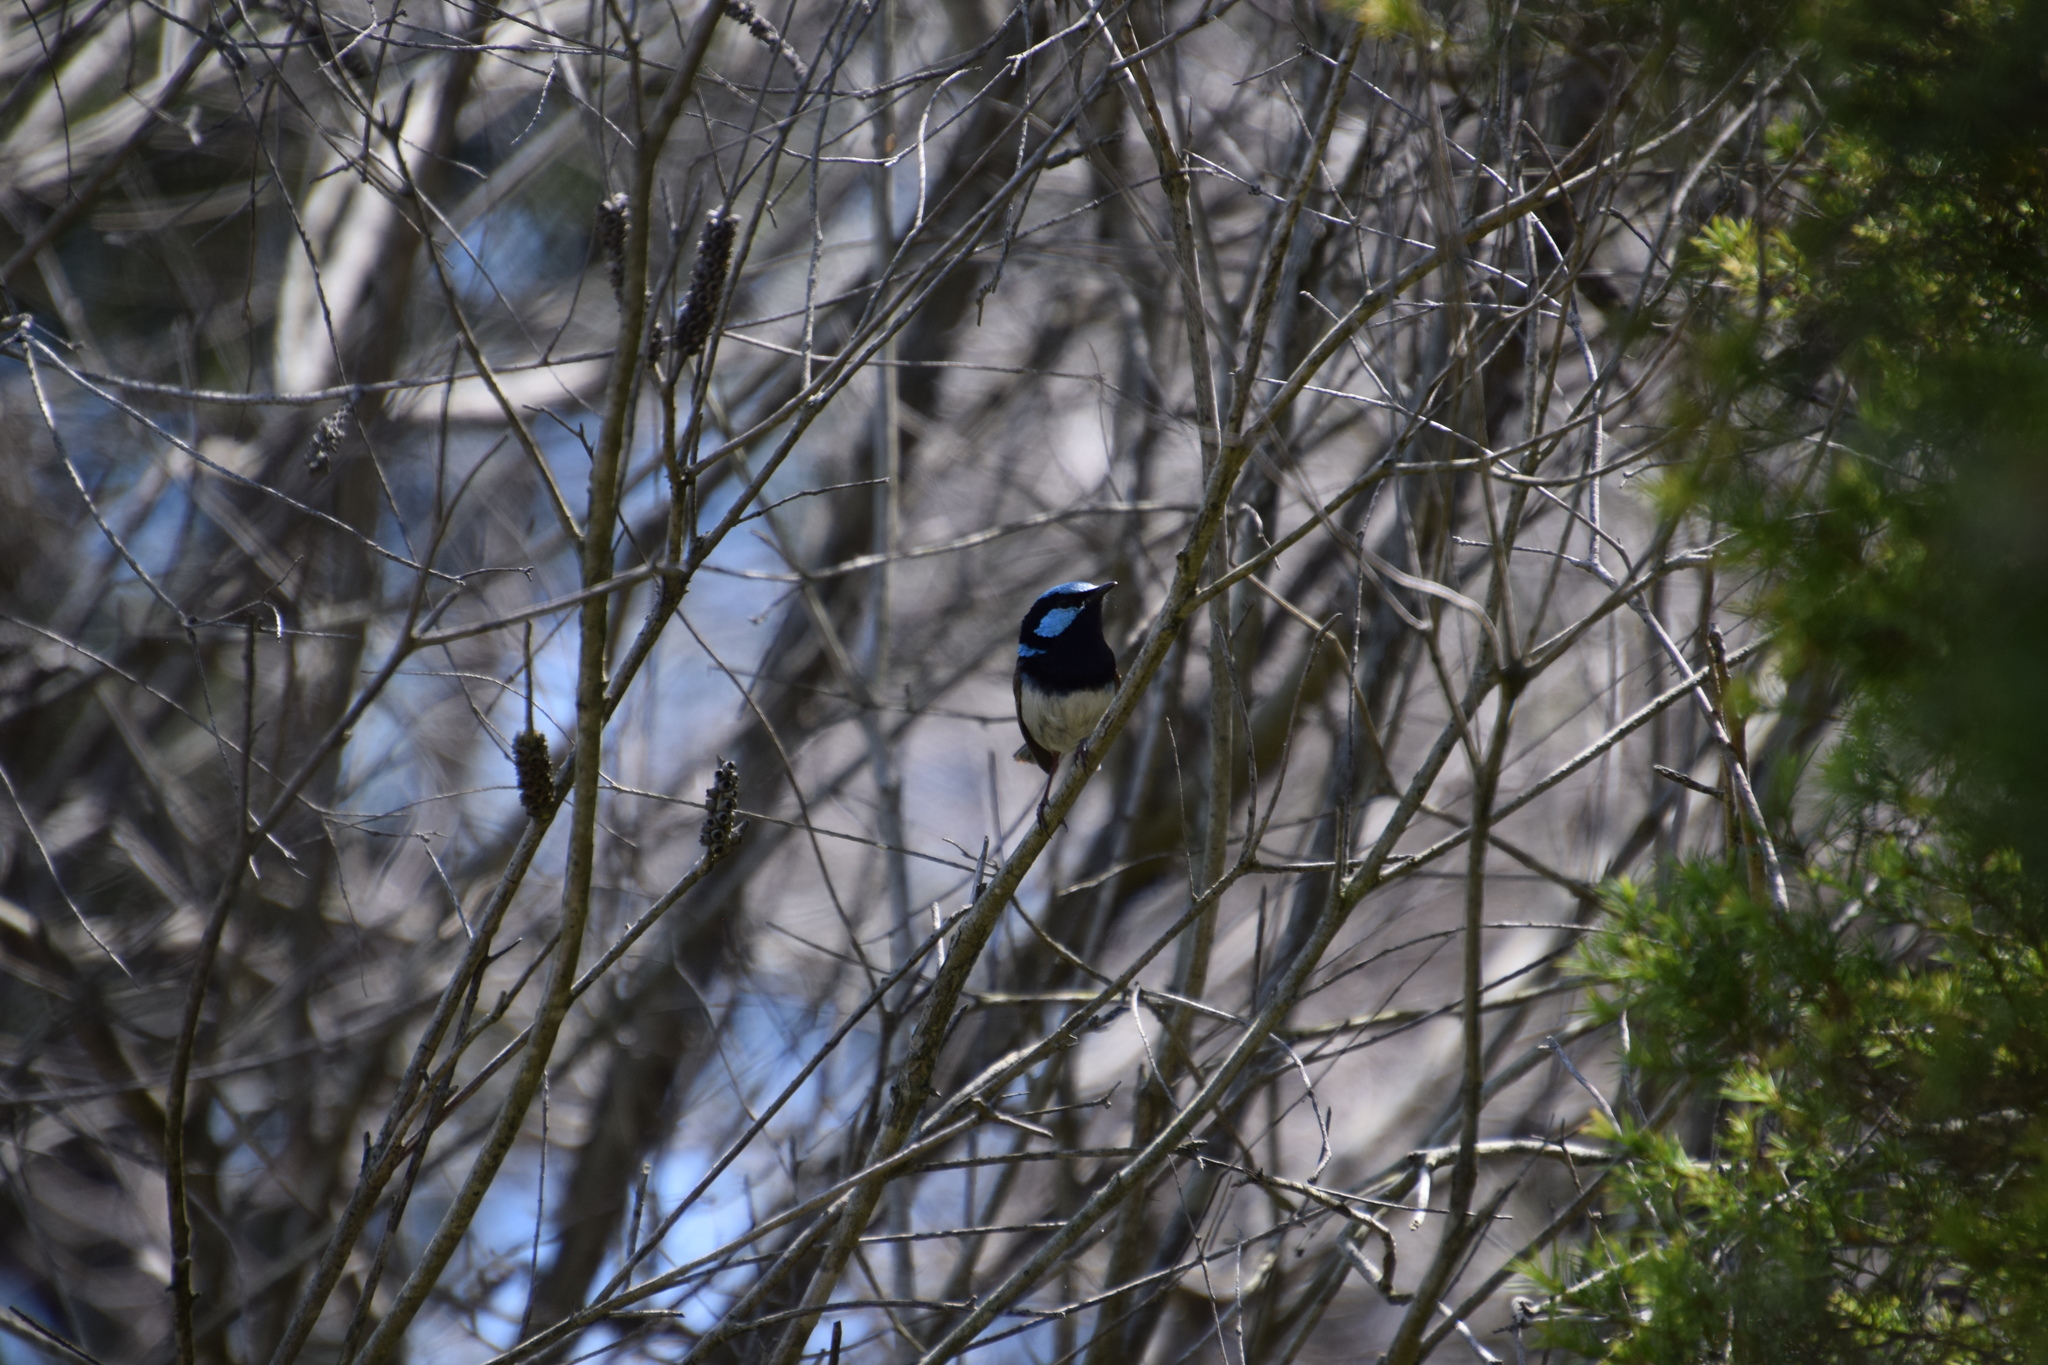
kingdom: Animalia
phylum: Chordata
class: Aves
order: Passeriformes
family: Maluridae
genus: Malurus
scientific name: Malurus cyaneus
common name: Superb fairywren
